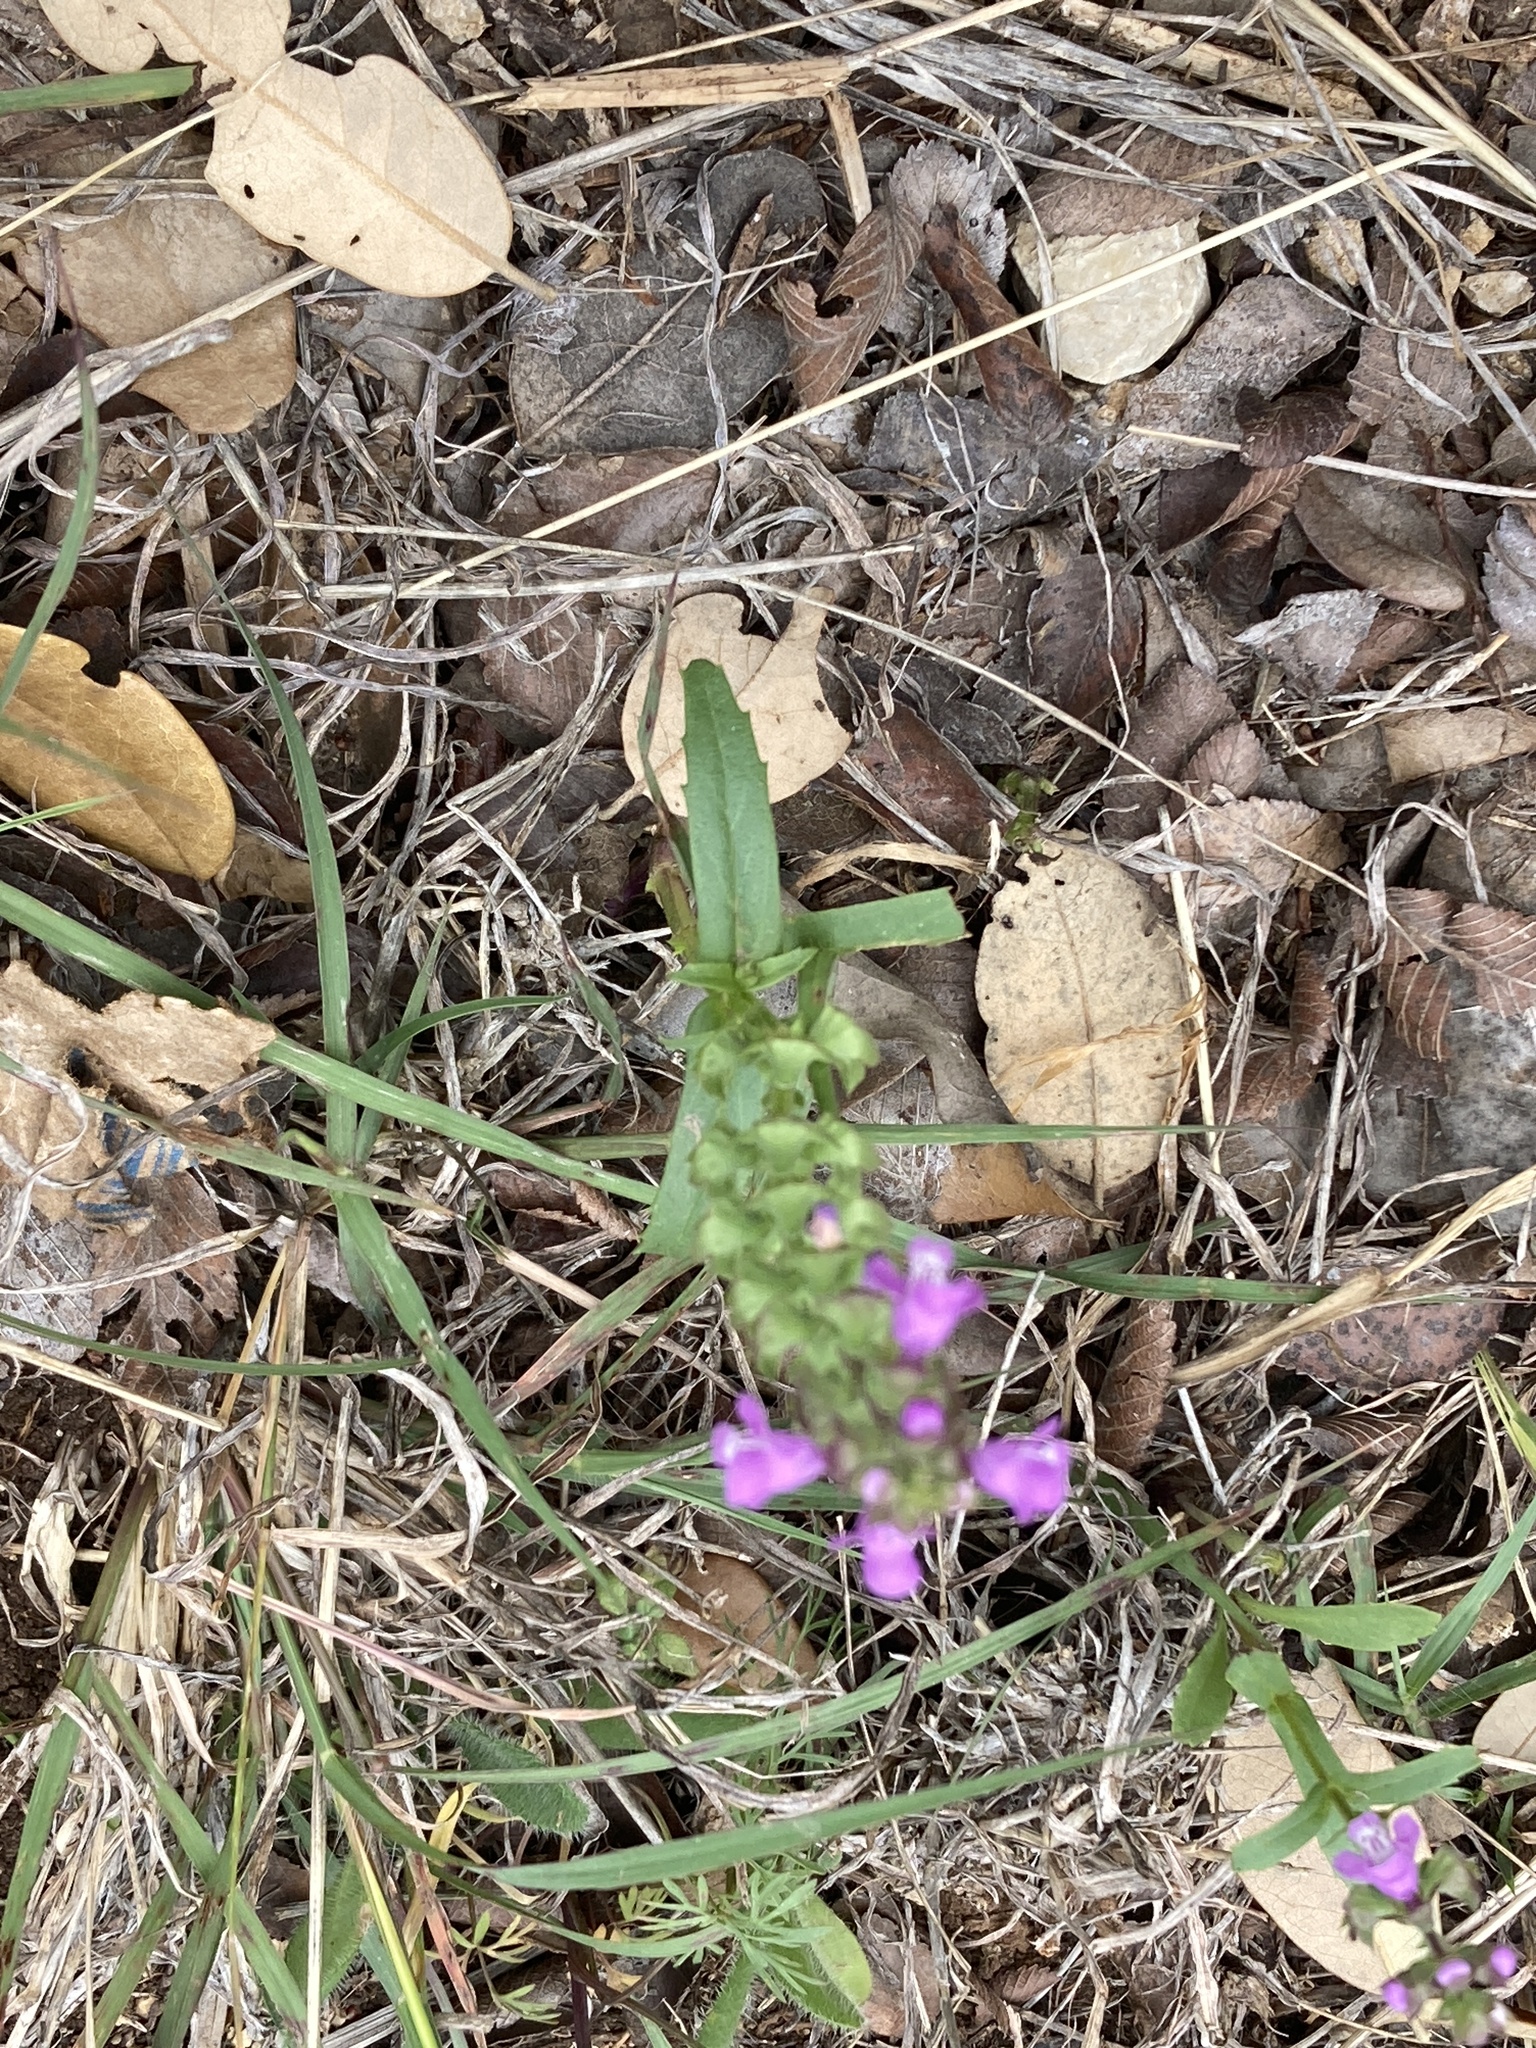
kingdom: Plantae
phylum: Tracheophyta
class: Magnoliopsida
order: Lamiales
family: Lamiaceae
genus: Warnockia
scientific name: Warnockia scutellarioides
